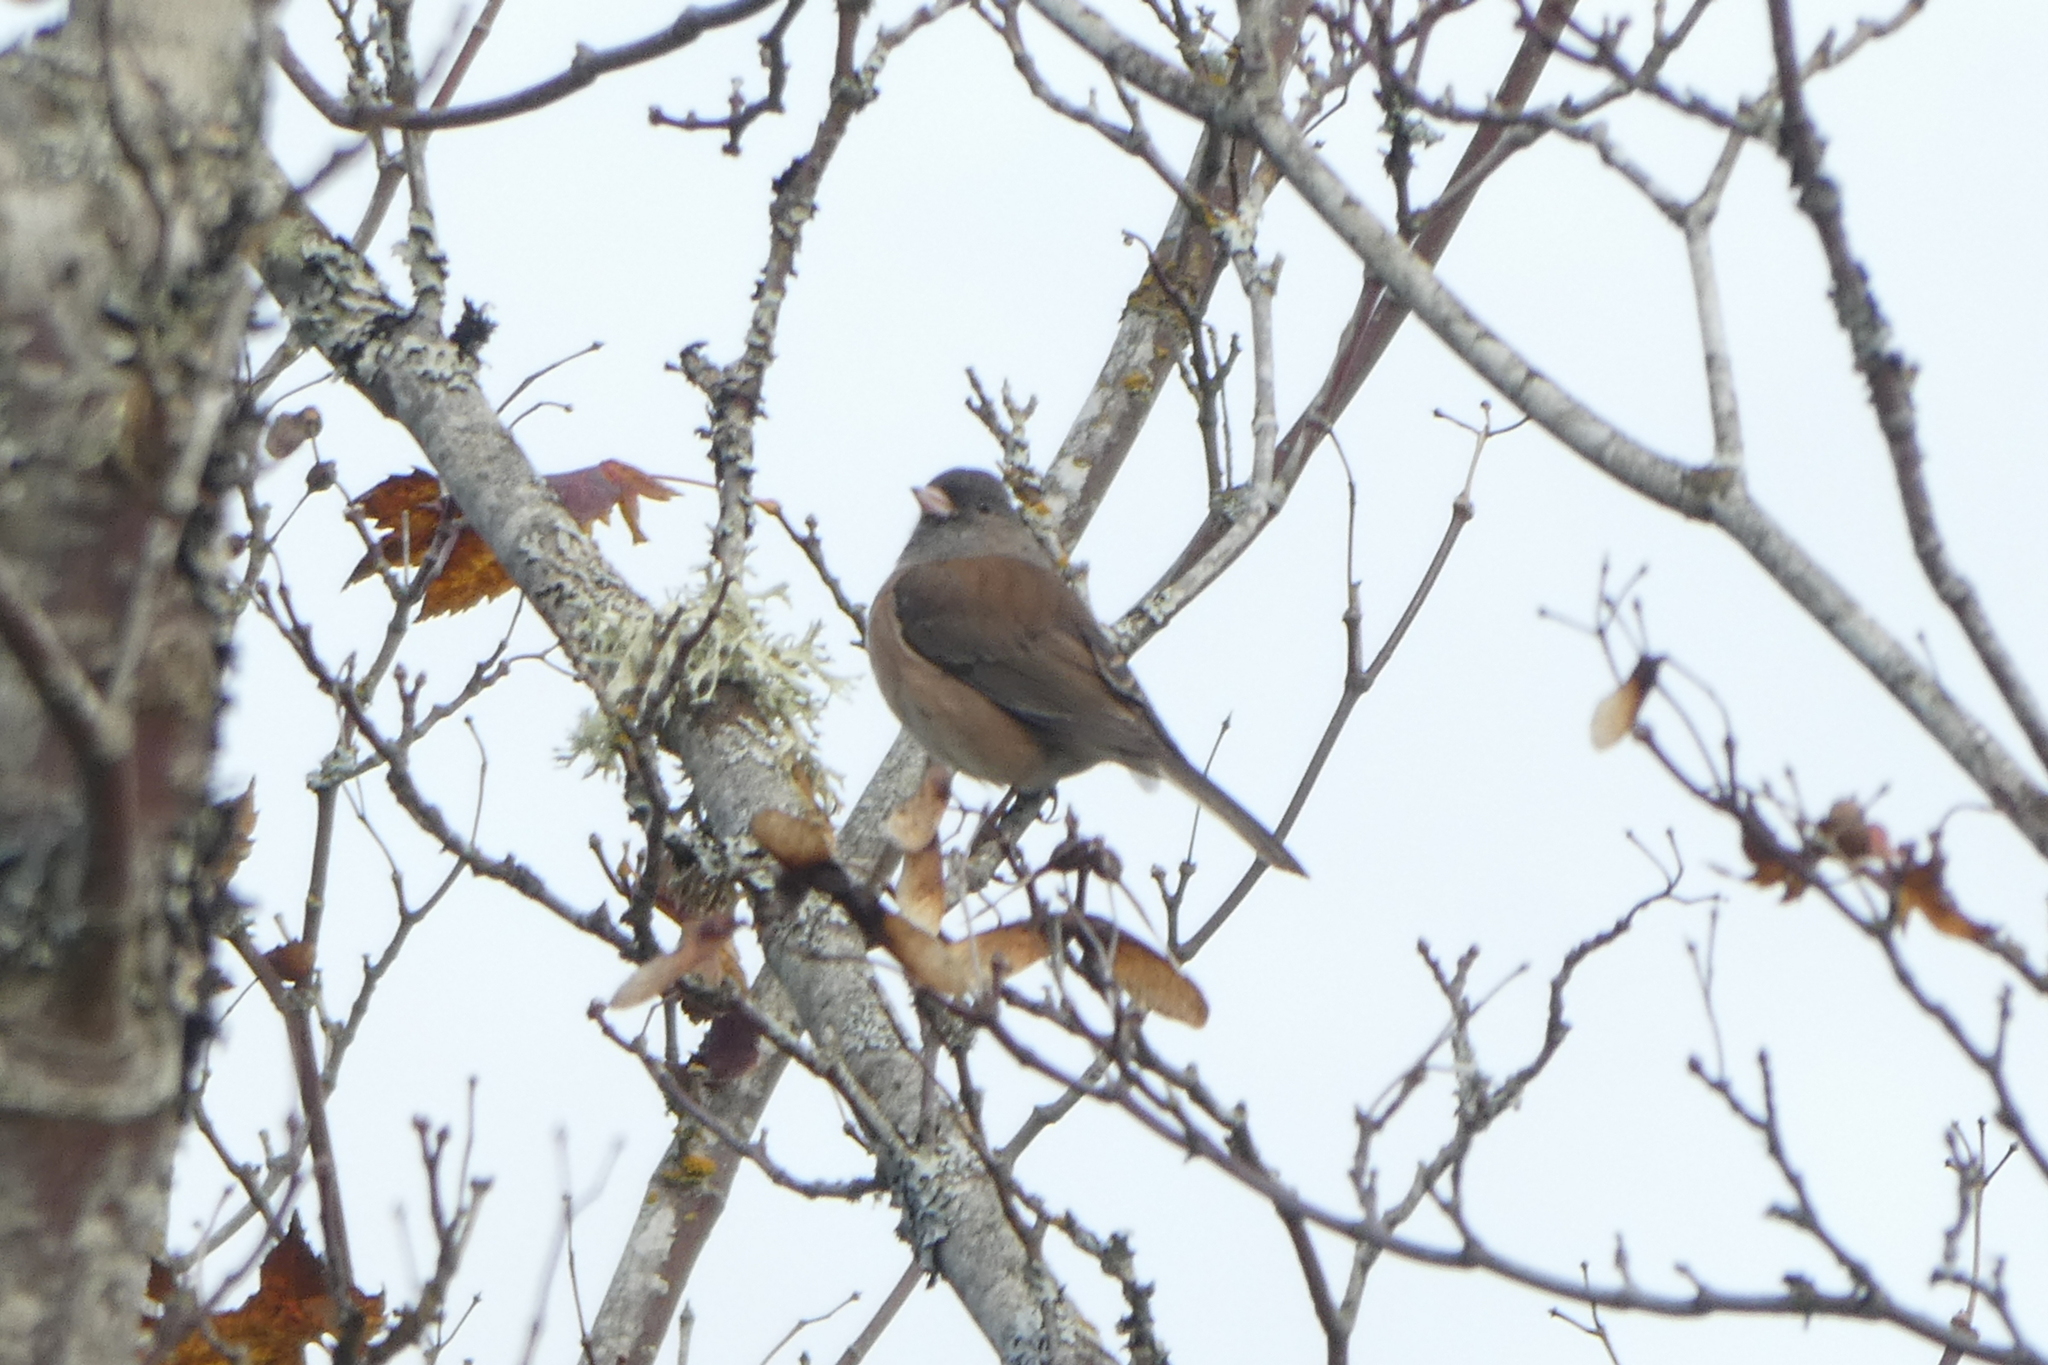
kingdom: Animalia
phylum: Chordata
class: Aves
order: Passeriformes
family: Passerellidae
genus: Junco
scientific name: Junco hyemalis
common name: Dark-eyed junco
